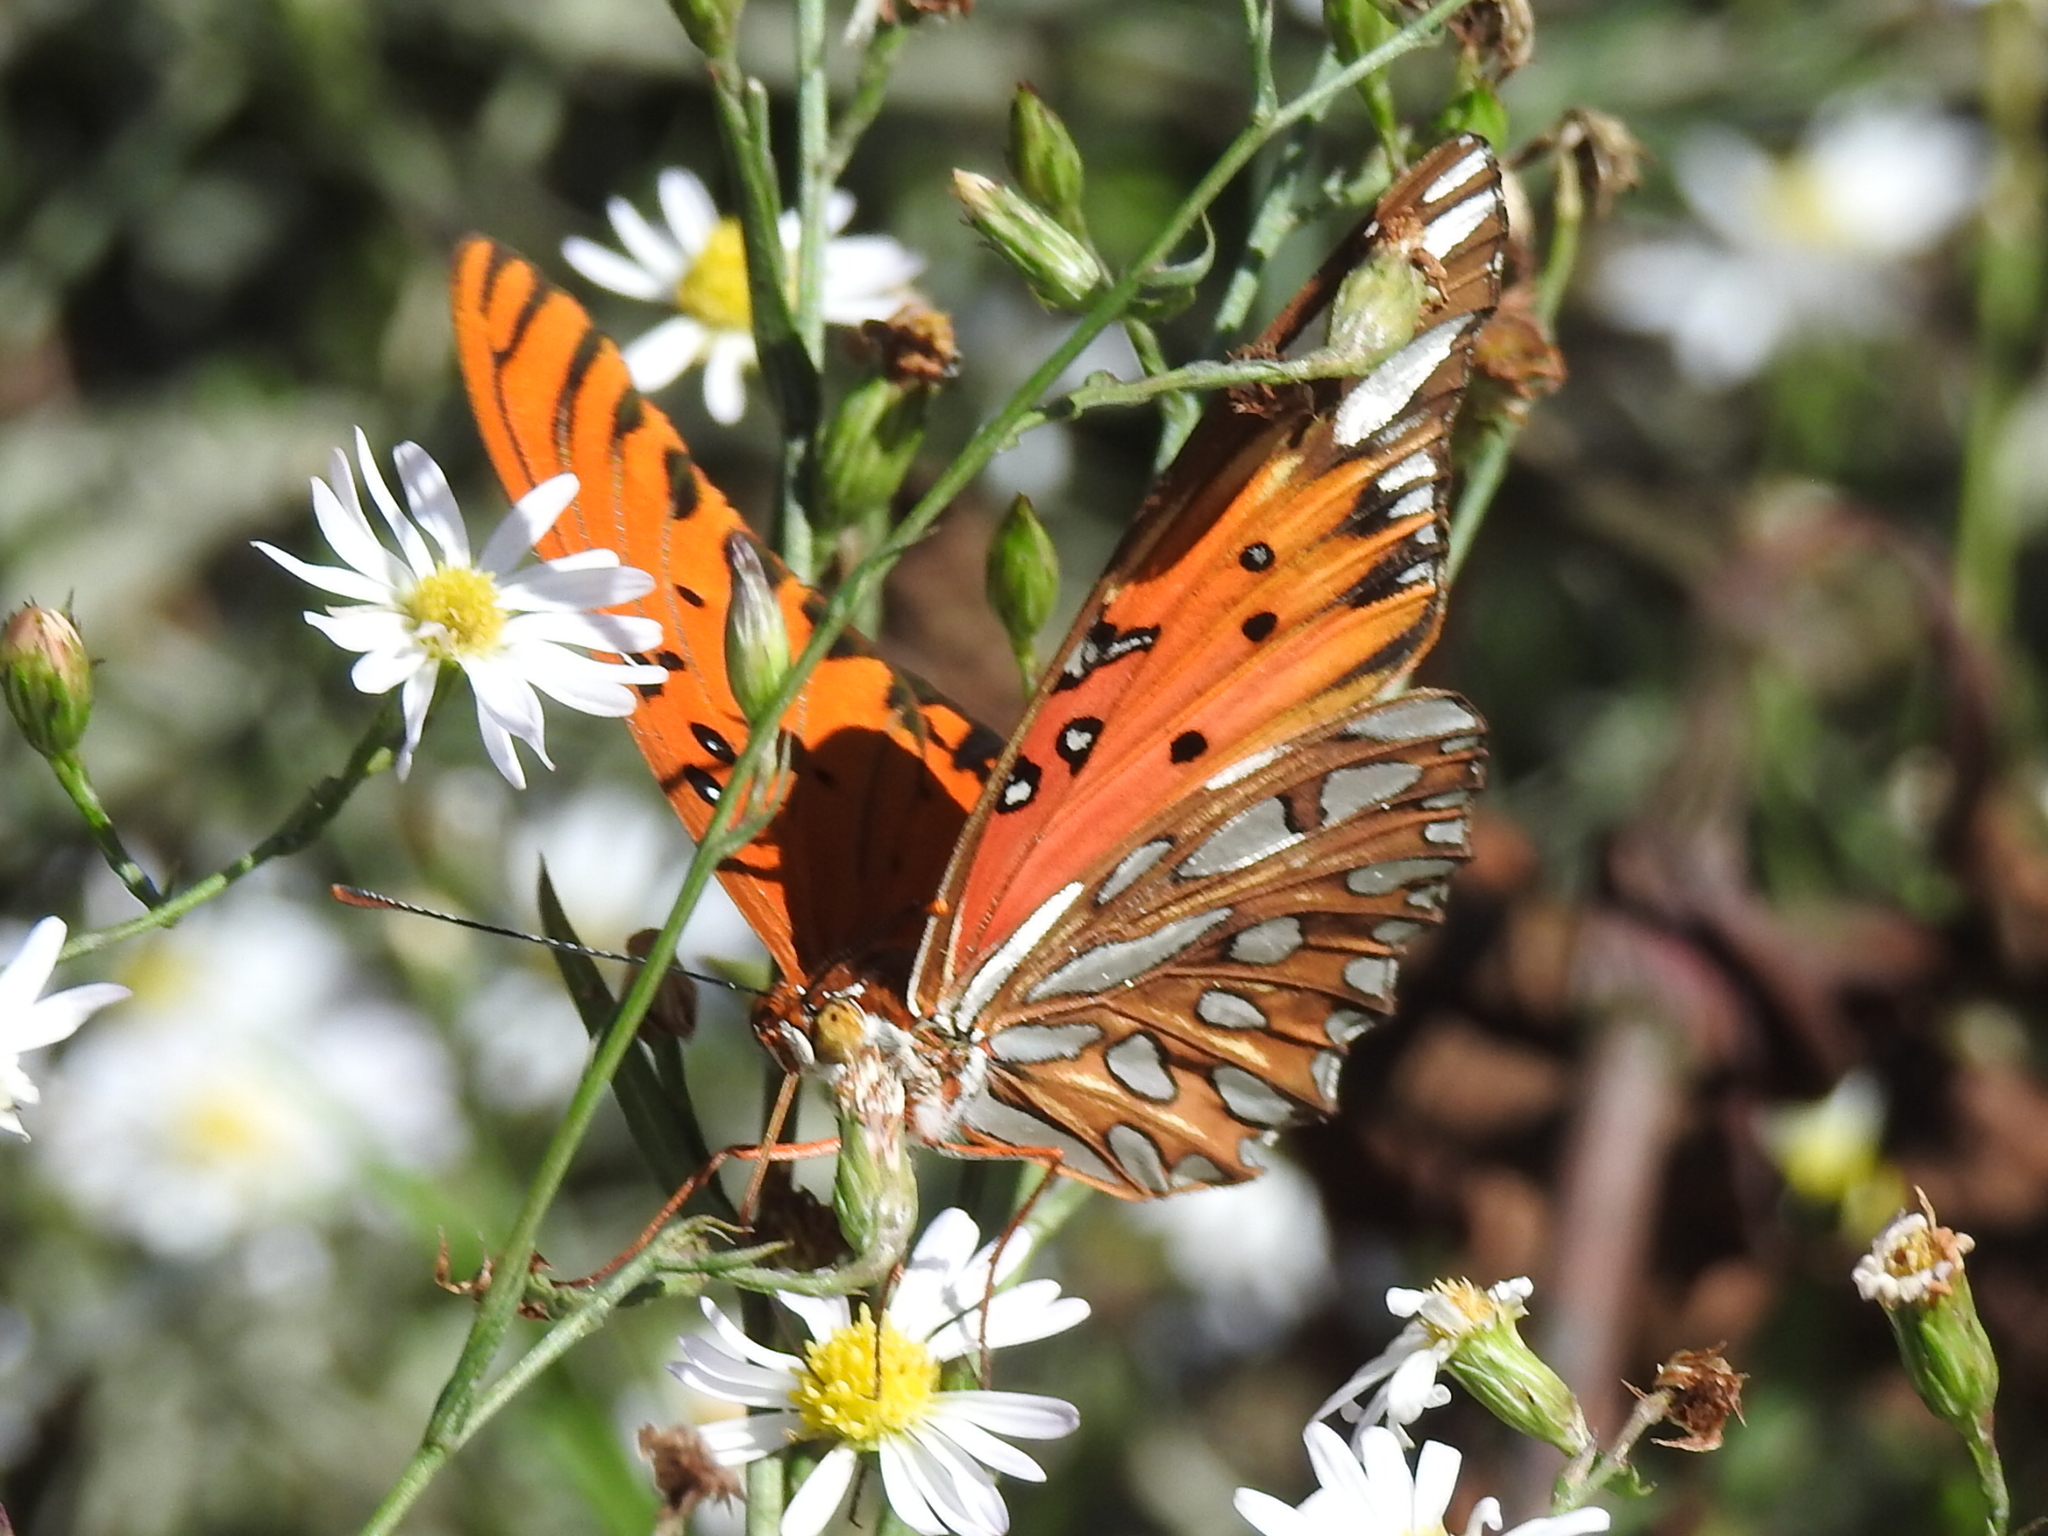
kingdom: Animalia
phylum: Arthropoda
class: Insecta
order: Lepidoptera
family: Nymphalidae
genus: Dione
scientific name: Dione vanillae
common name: Gulf fritillary
